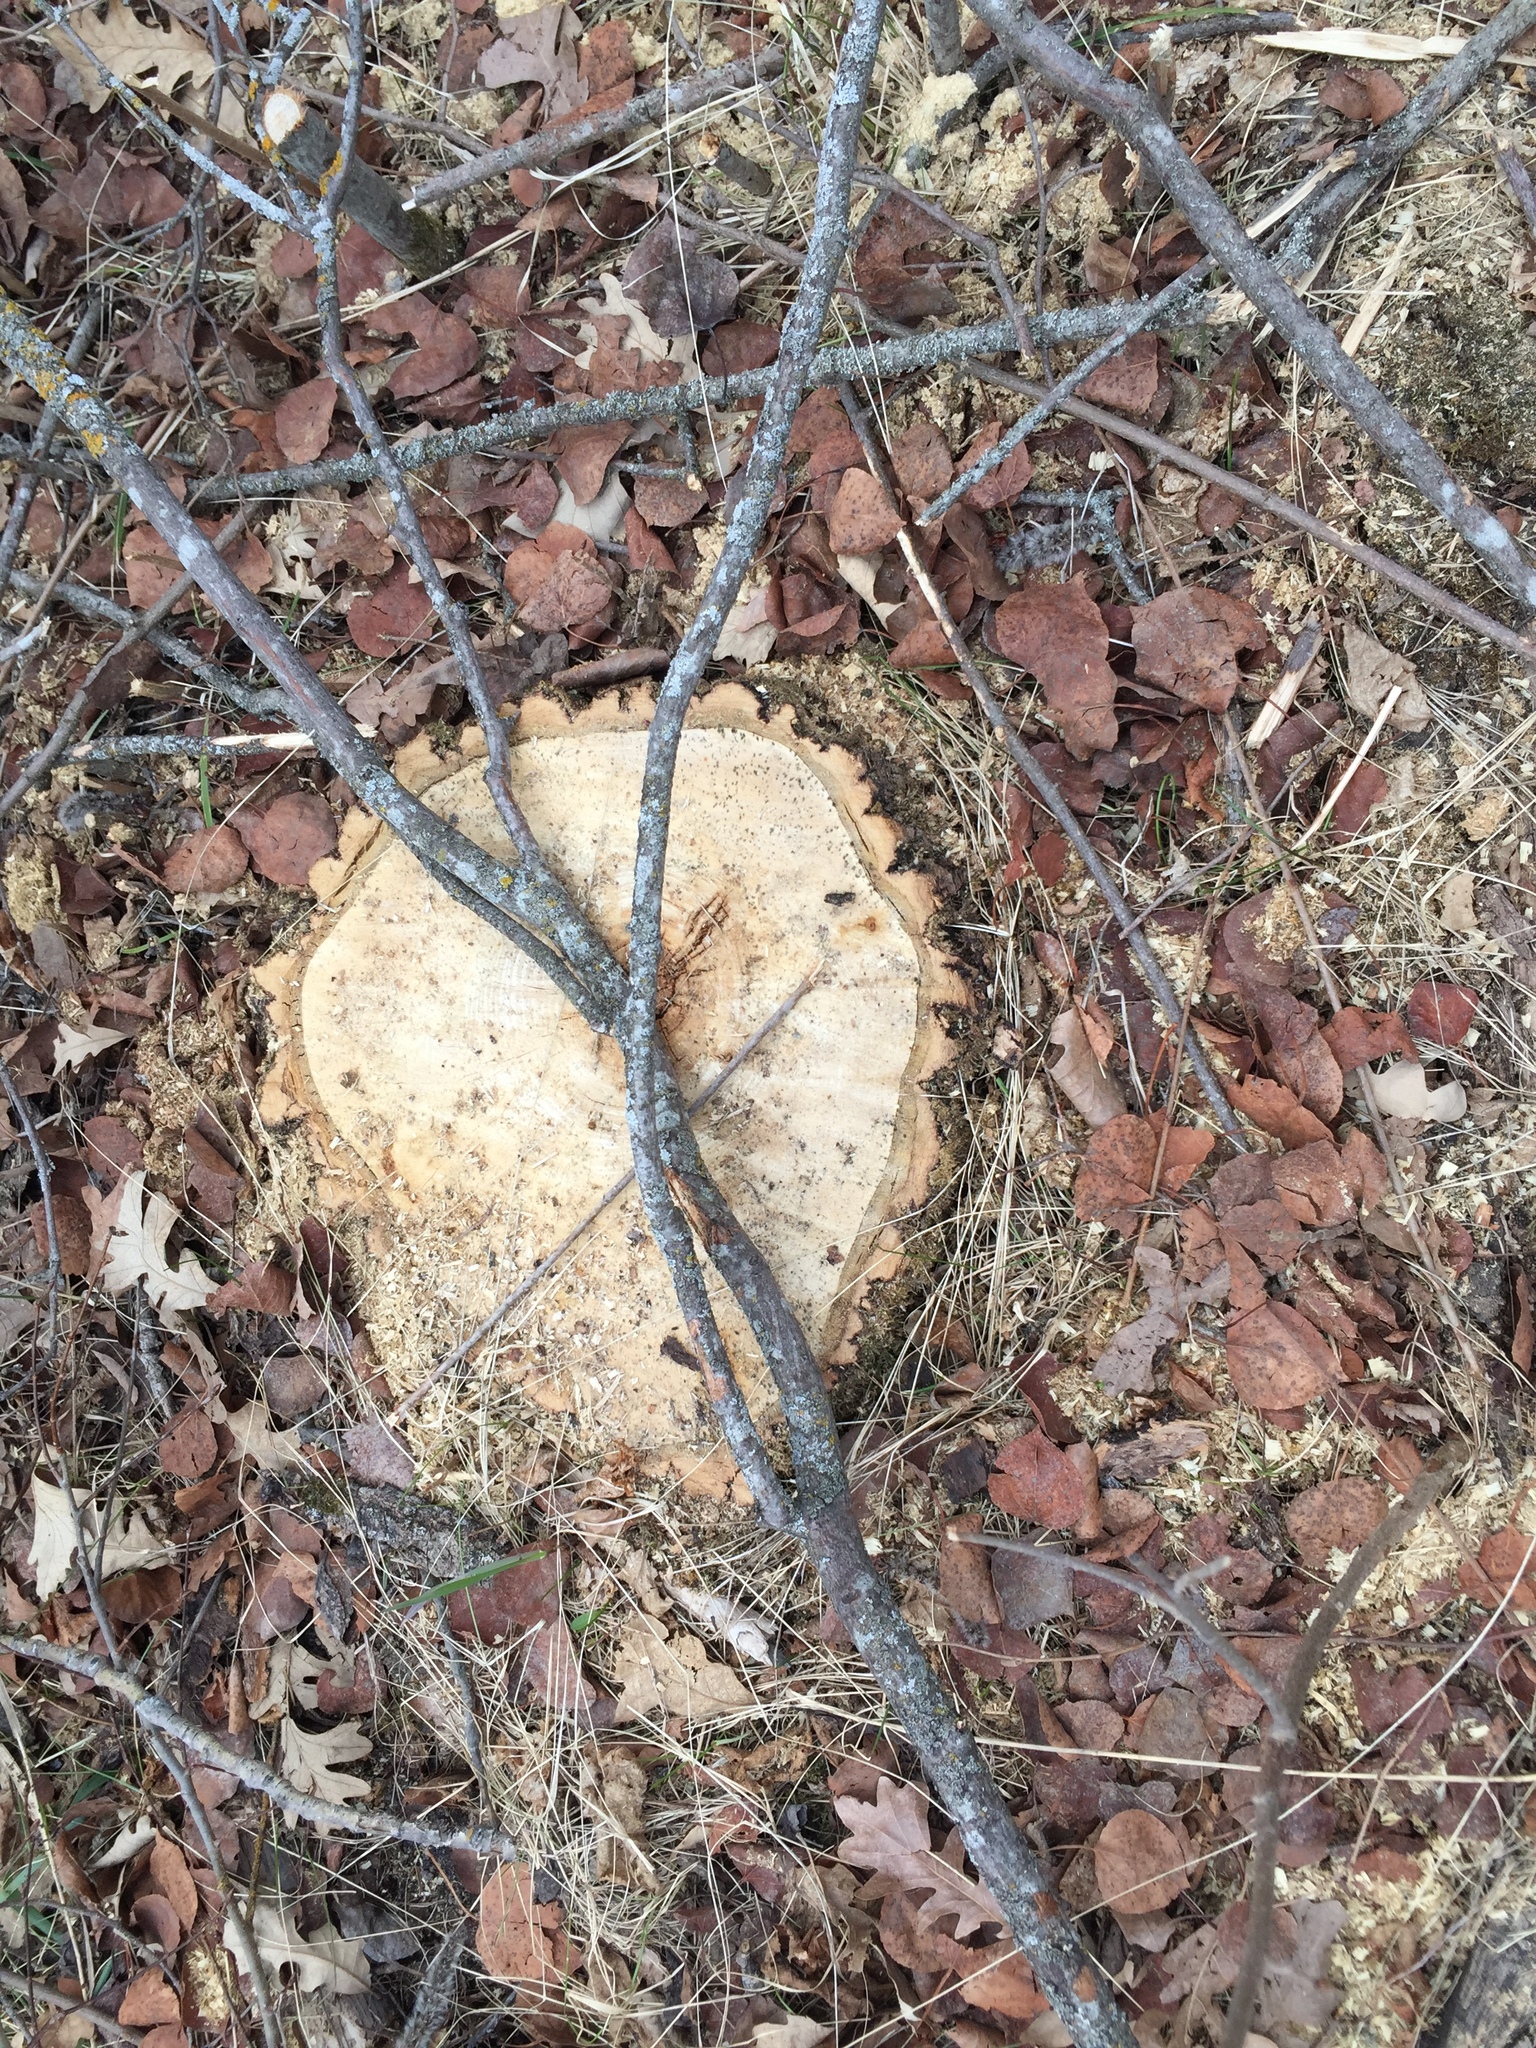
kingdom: Plantae
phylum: Tracheophyta
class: Magnoliopsida
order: Fagales
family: Fagaceae
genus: Quercus
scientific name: Quercus macrocarpa
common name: Bur oak
